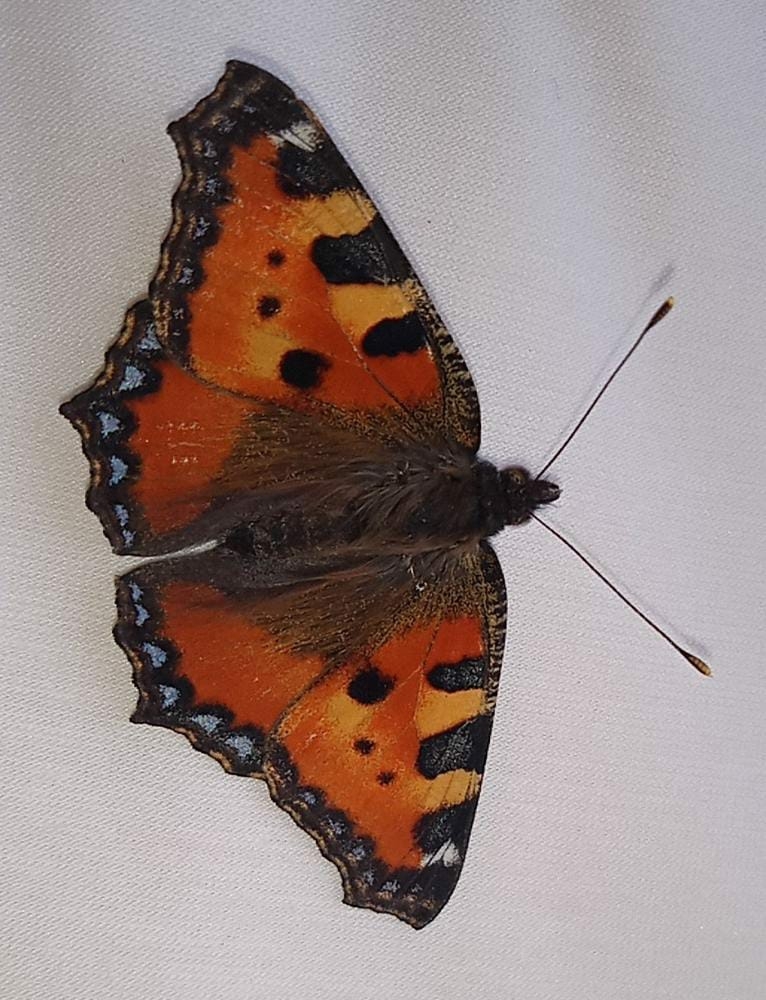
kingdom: Animalia
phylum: Arthropoda
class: Insecta
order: Lepidoptera
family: Nymphalidae
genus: Aglais
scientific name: Aglais urticae
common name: Small tortoiseshell
